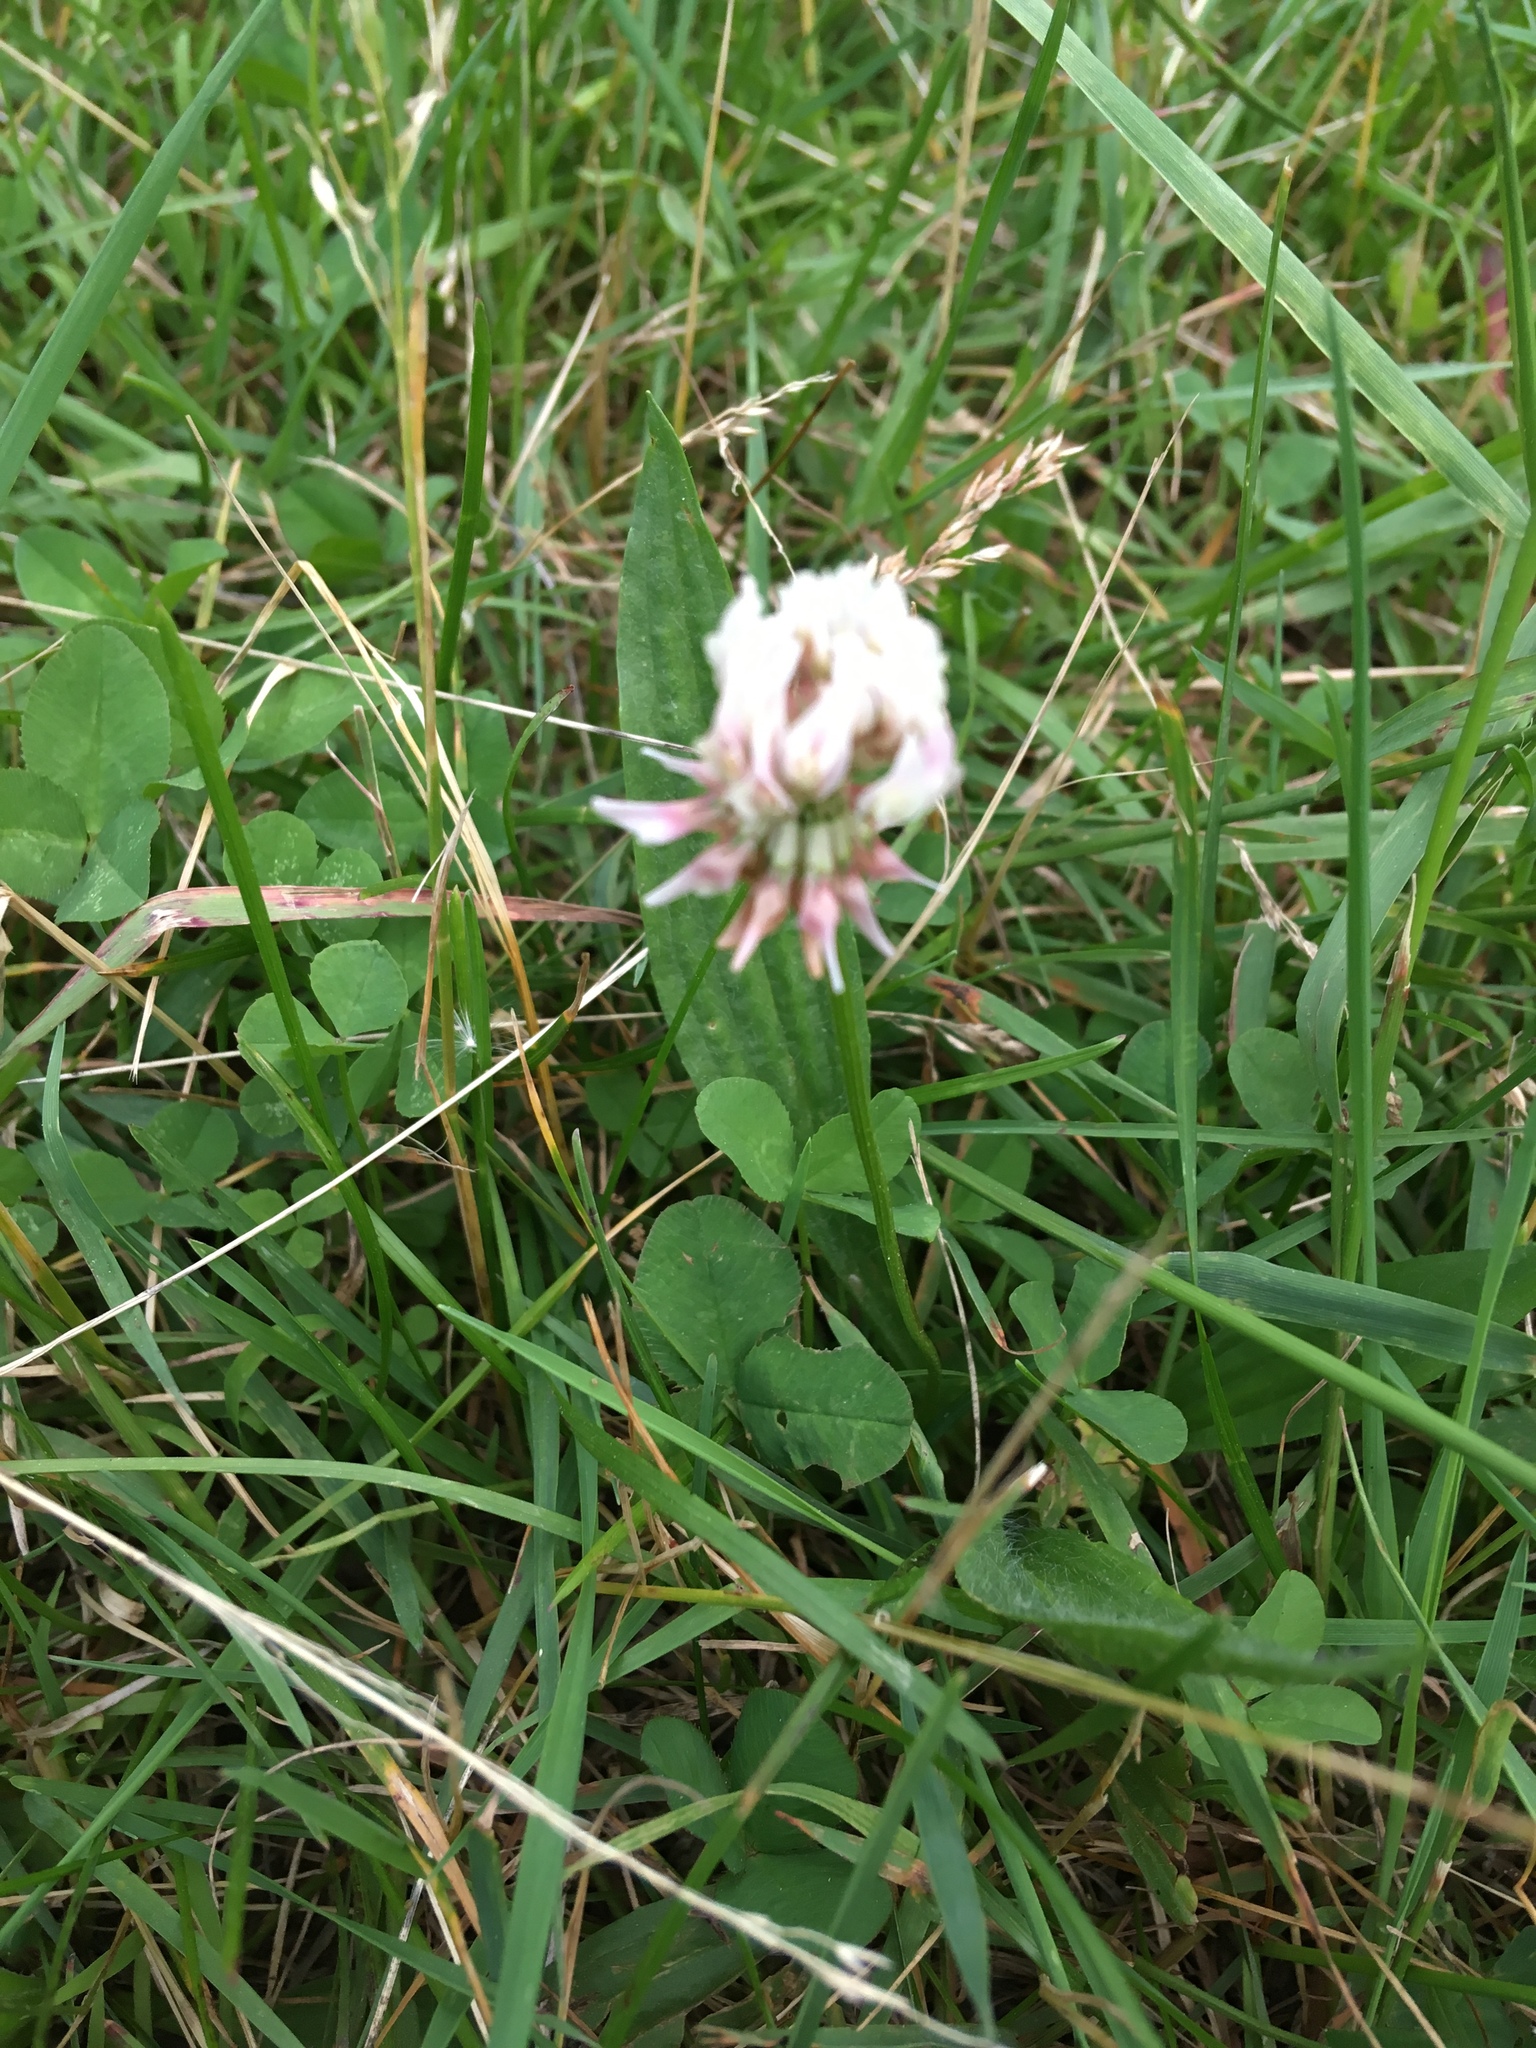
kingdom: Plantae
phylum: Tracheophyta
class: Magnoliopsida
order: Fabales
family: Fabaceae
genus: Trifolium
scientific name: Trifolium repens
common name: White clover
